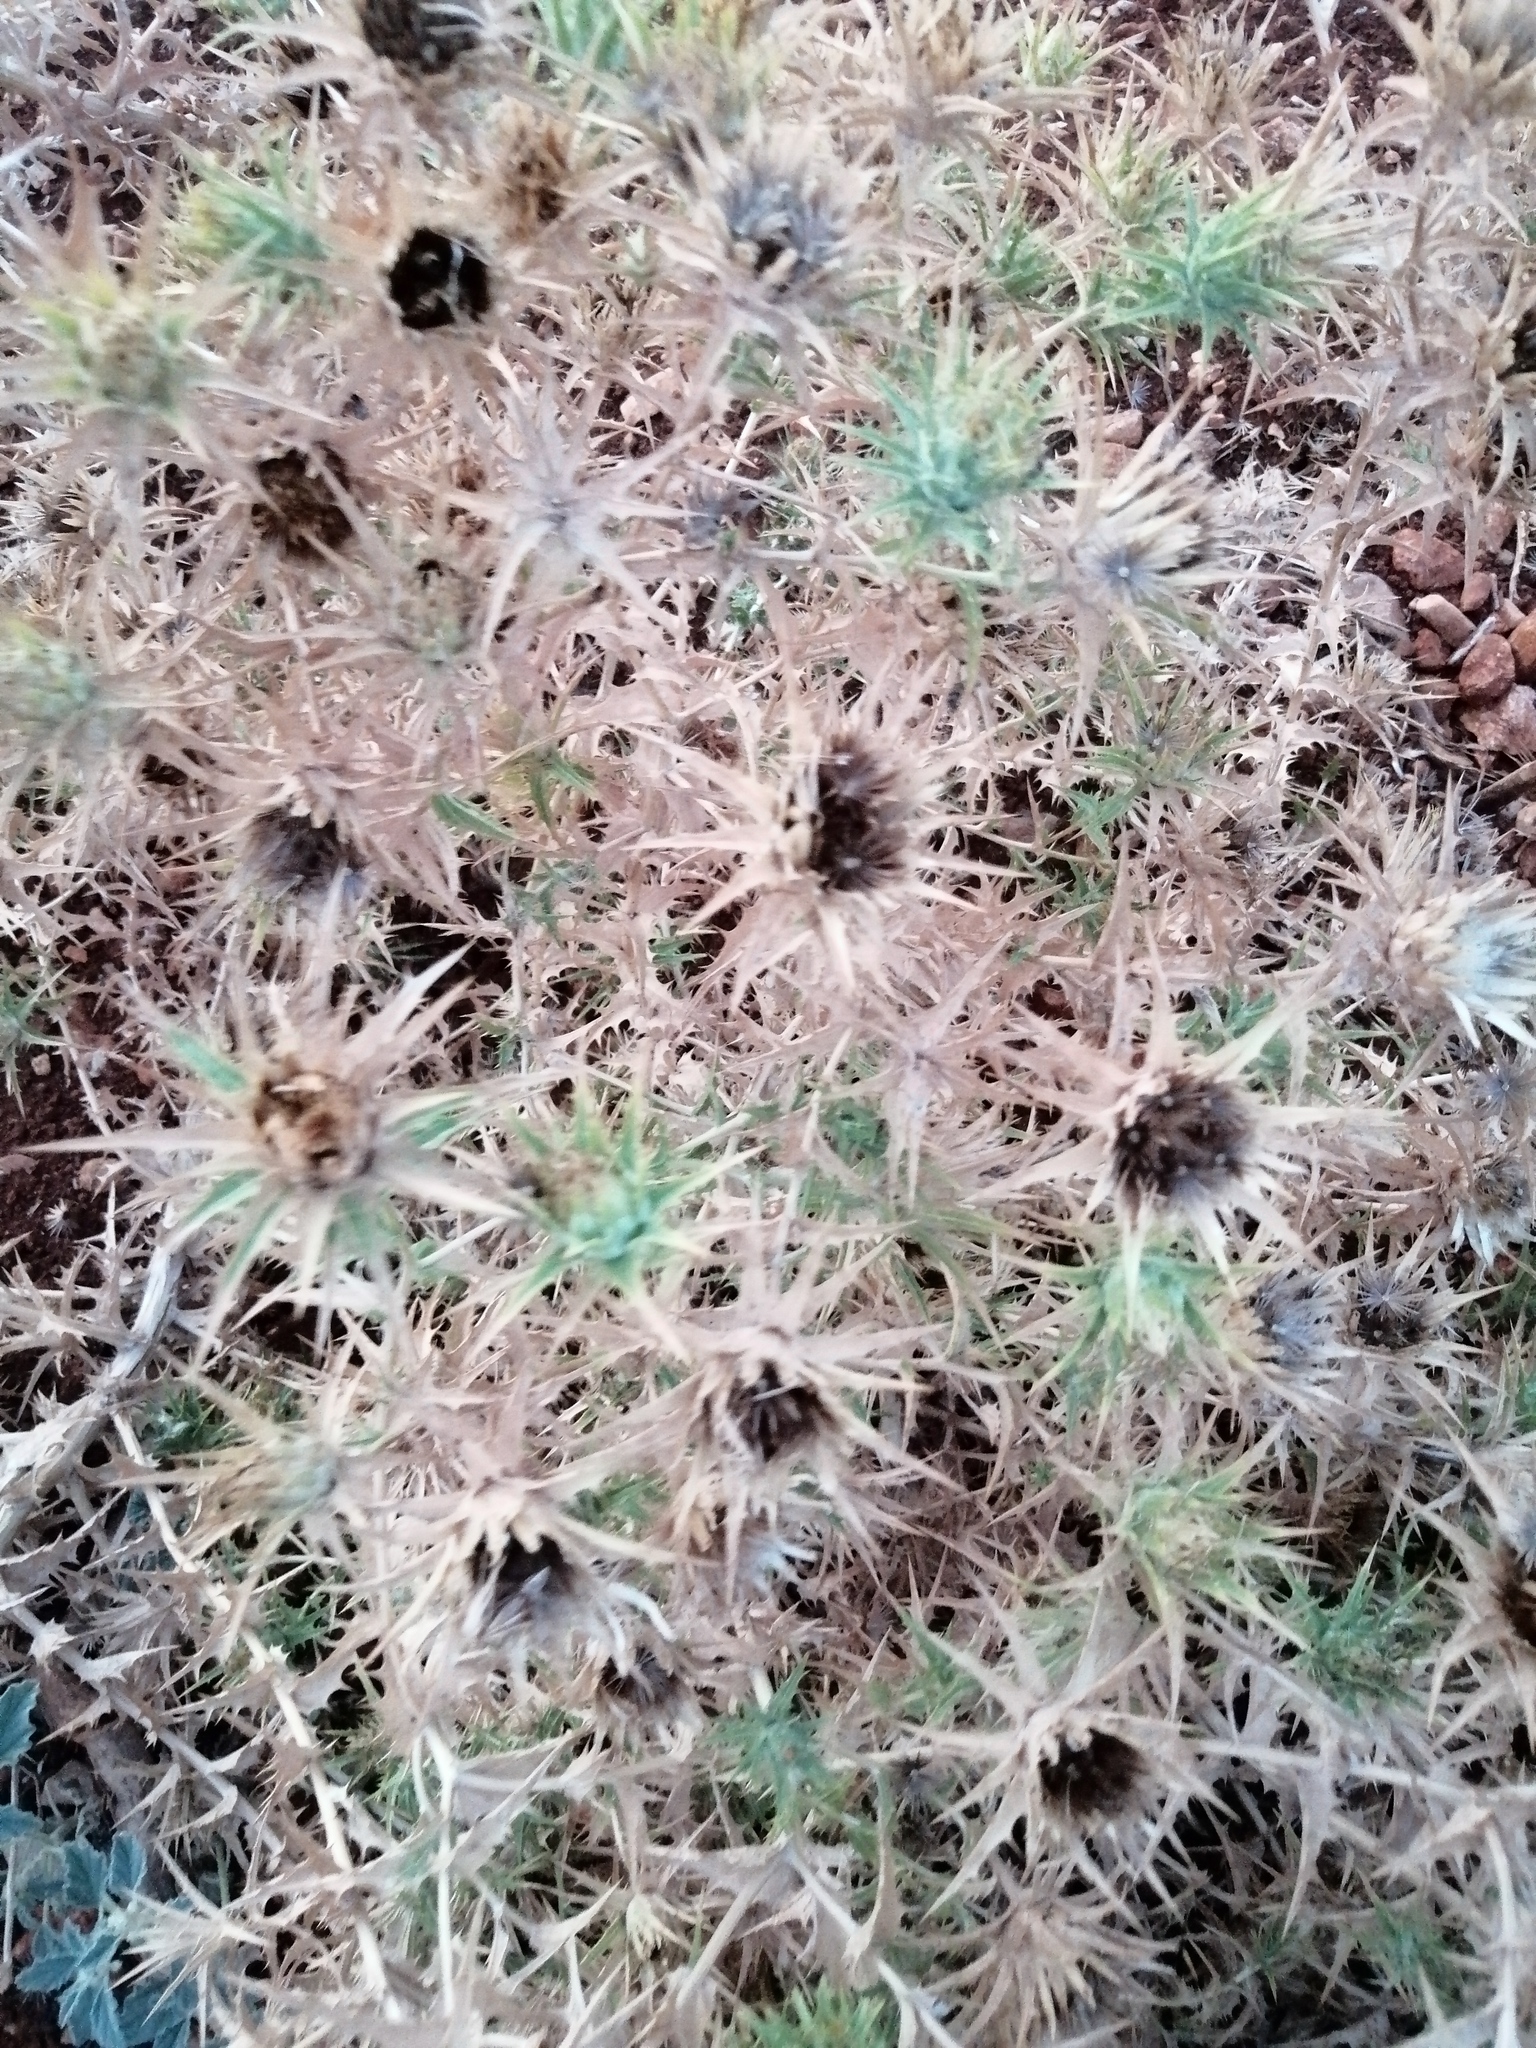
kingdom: Plantae
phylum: Tracheophyta
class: Magnoliopsida
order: Asterales
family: Asteraceae
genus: Carlina
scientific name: Carlina corymbosa
